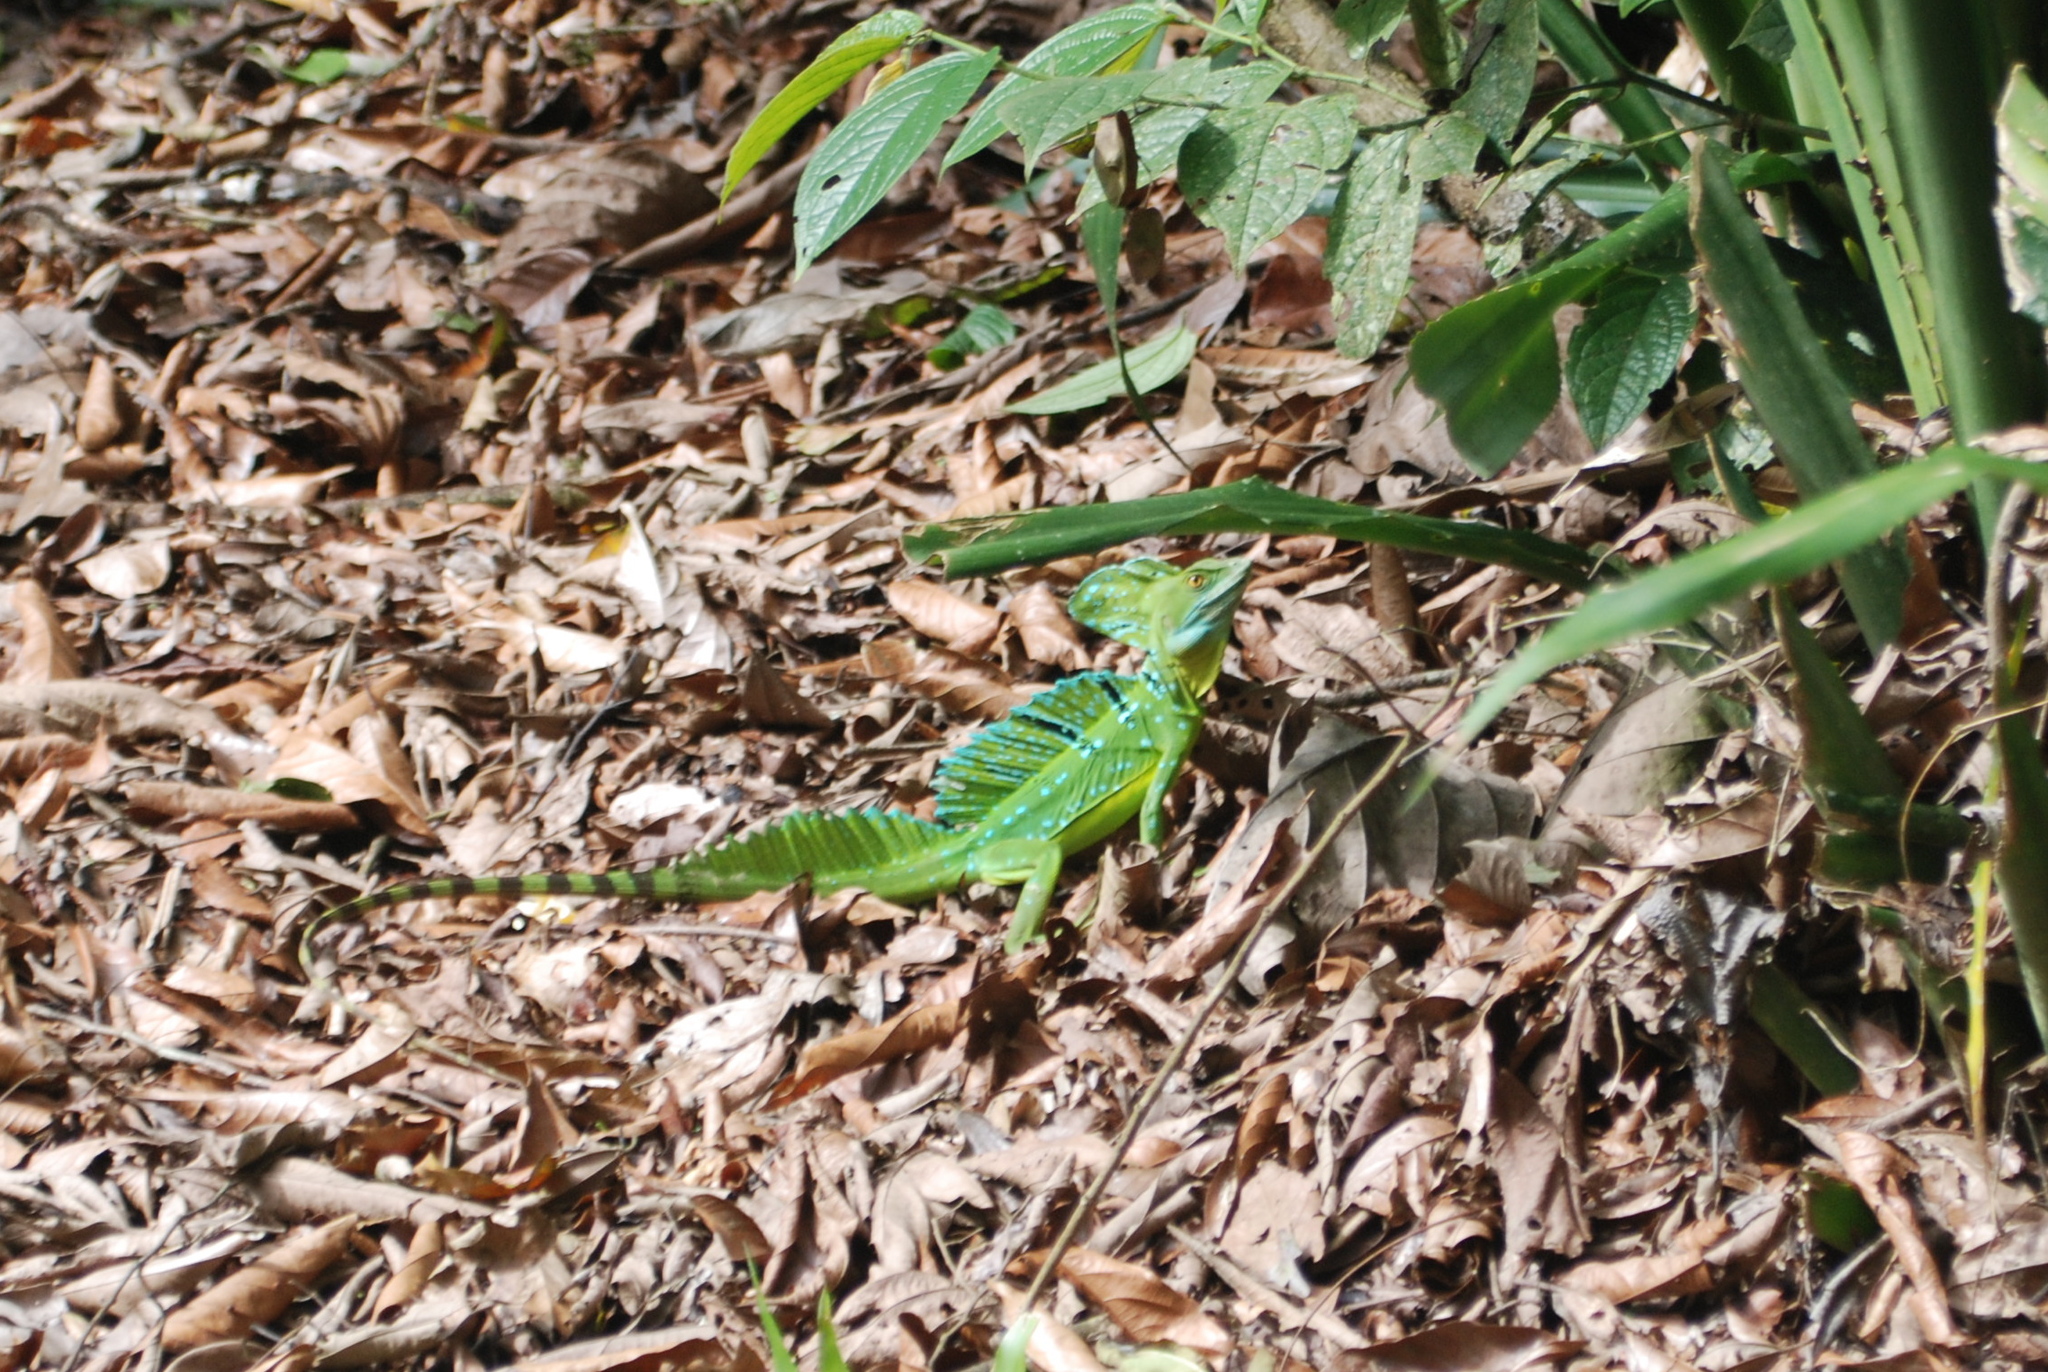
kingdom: Animalia
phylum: Chordata
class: Squamata
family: Corytophanidae
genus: Basiliscus
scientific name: Basiliscus plumifrons
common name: Green basilisk
